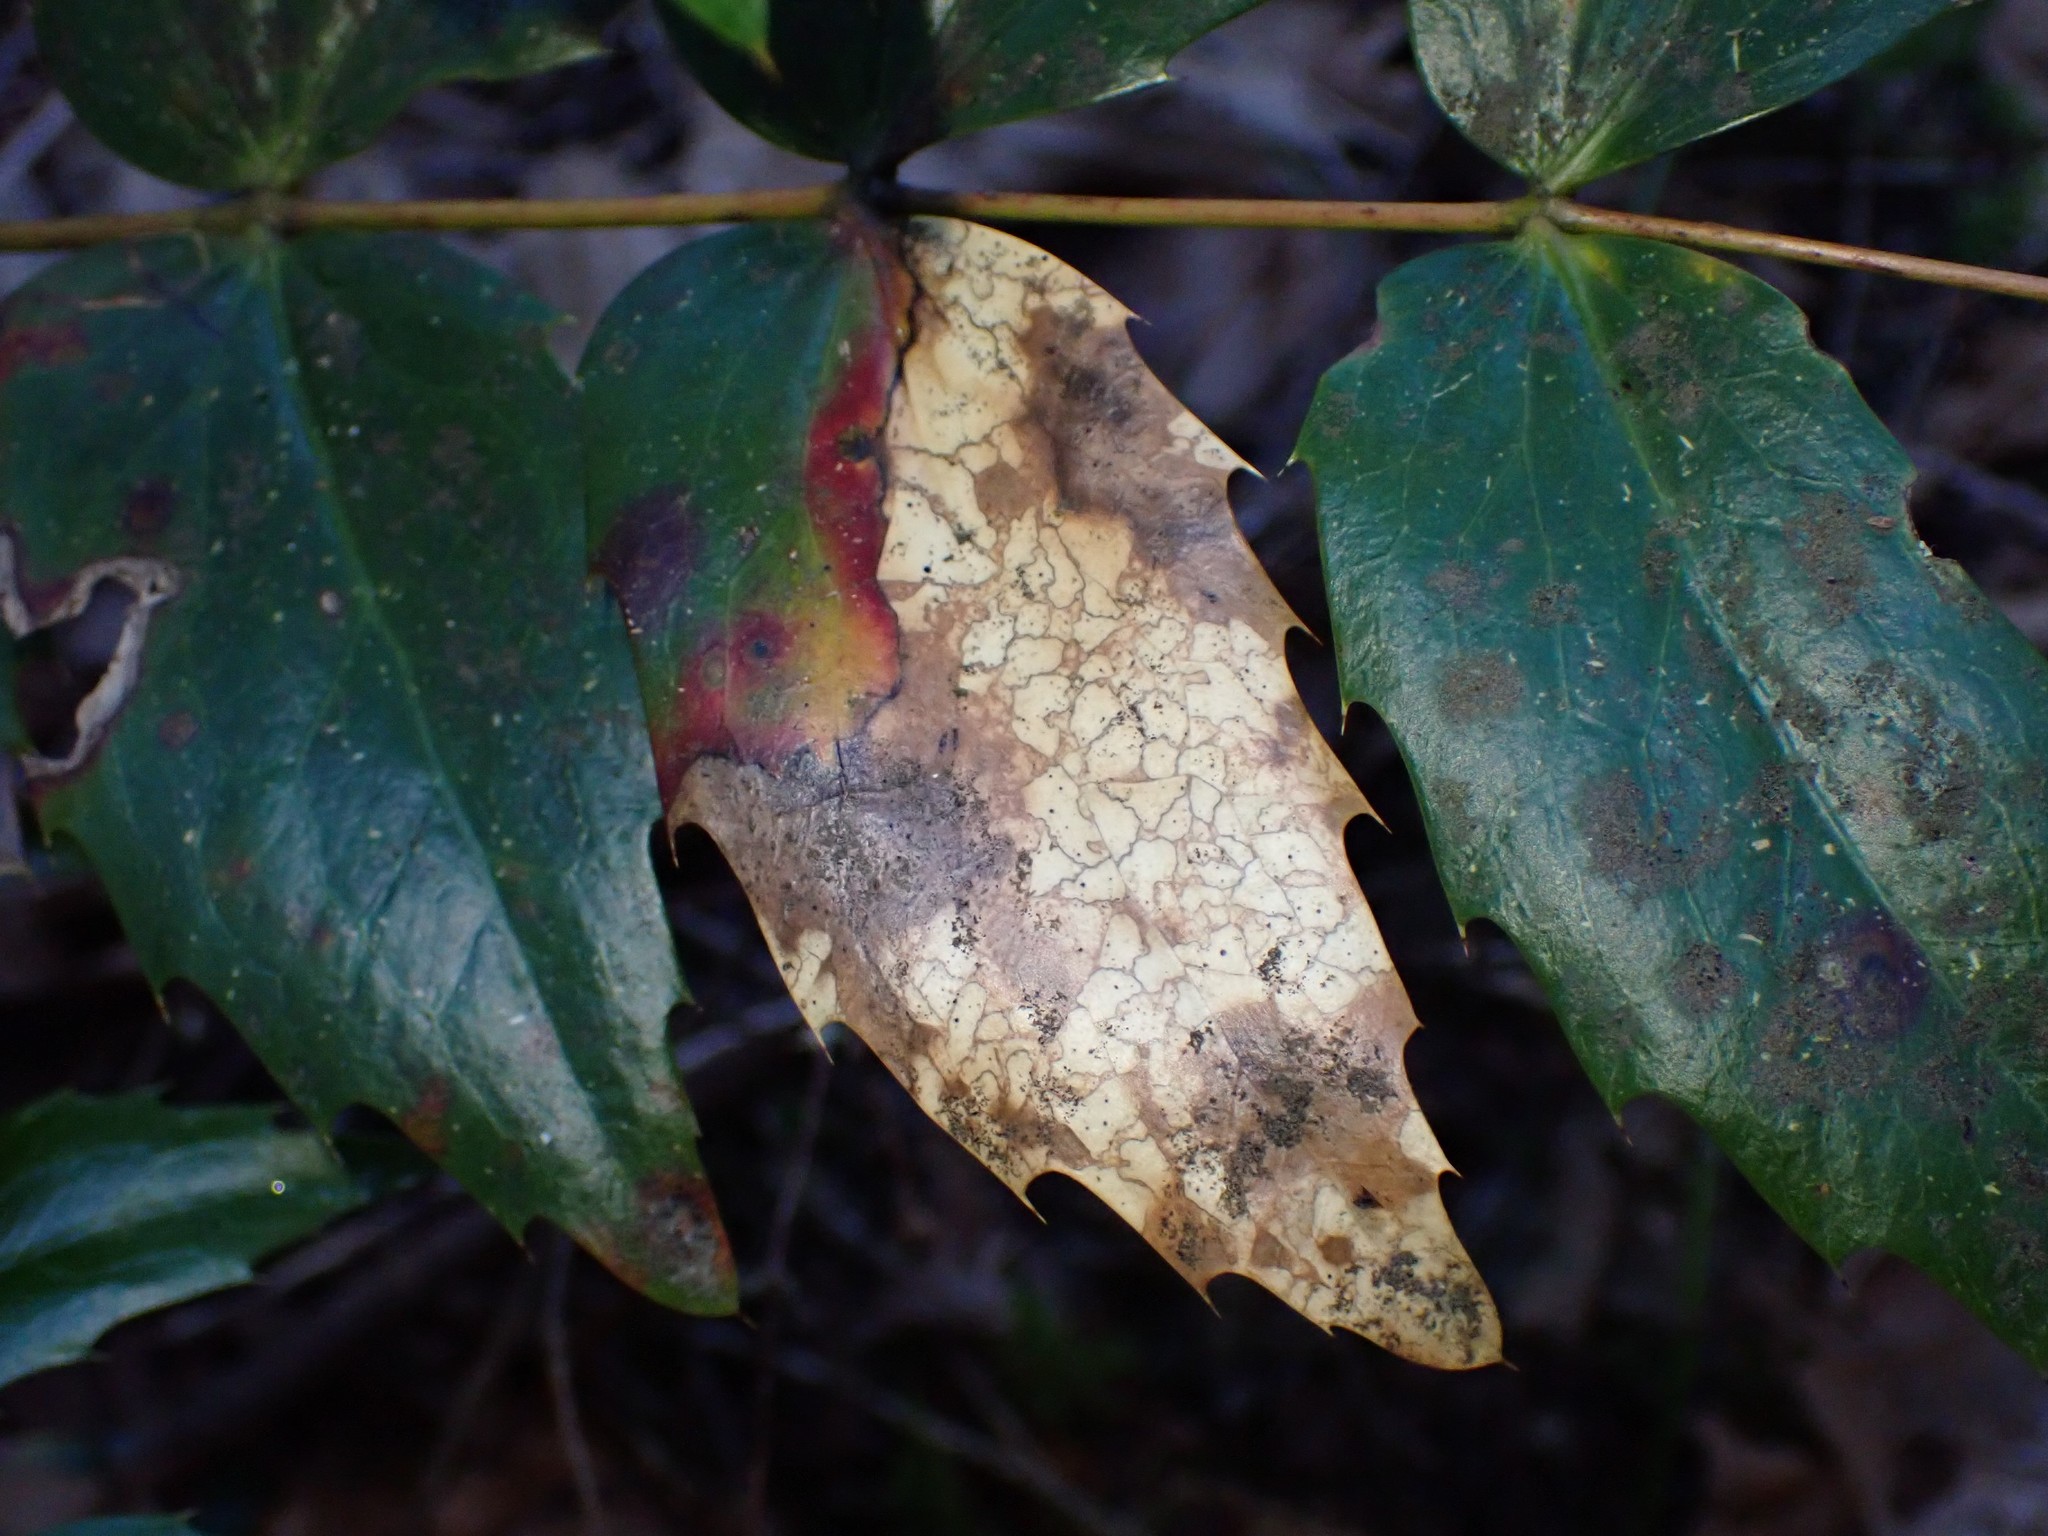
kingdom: Fungi
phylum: Ascomycota
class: Leotiomycetes
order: Rhytismatales
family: Rhytismataceae
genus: Coccomyces
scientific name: Coccomyces dentatus
